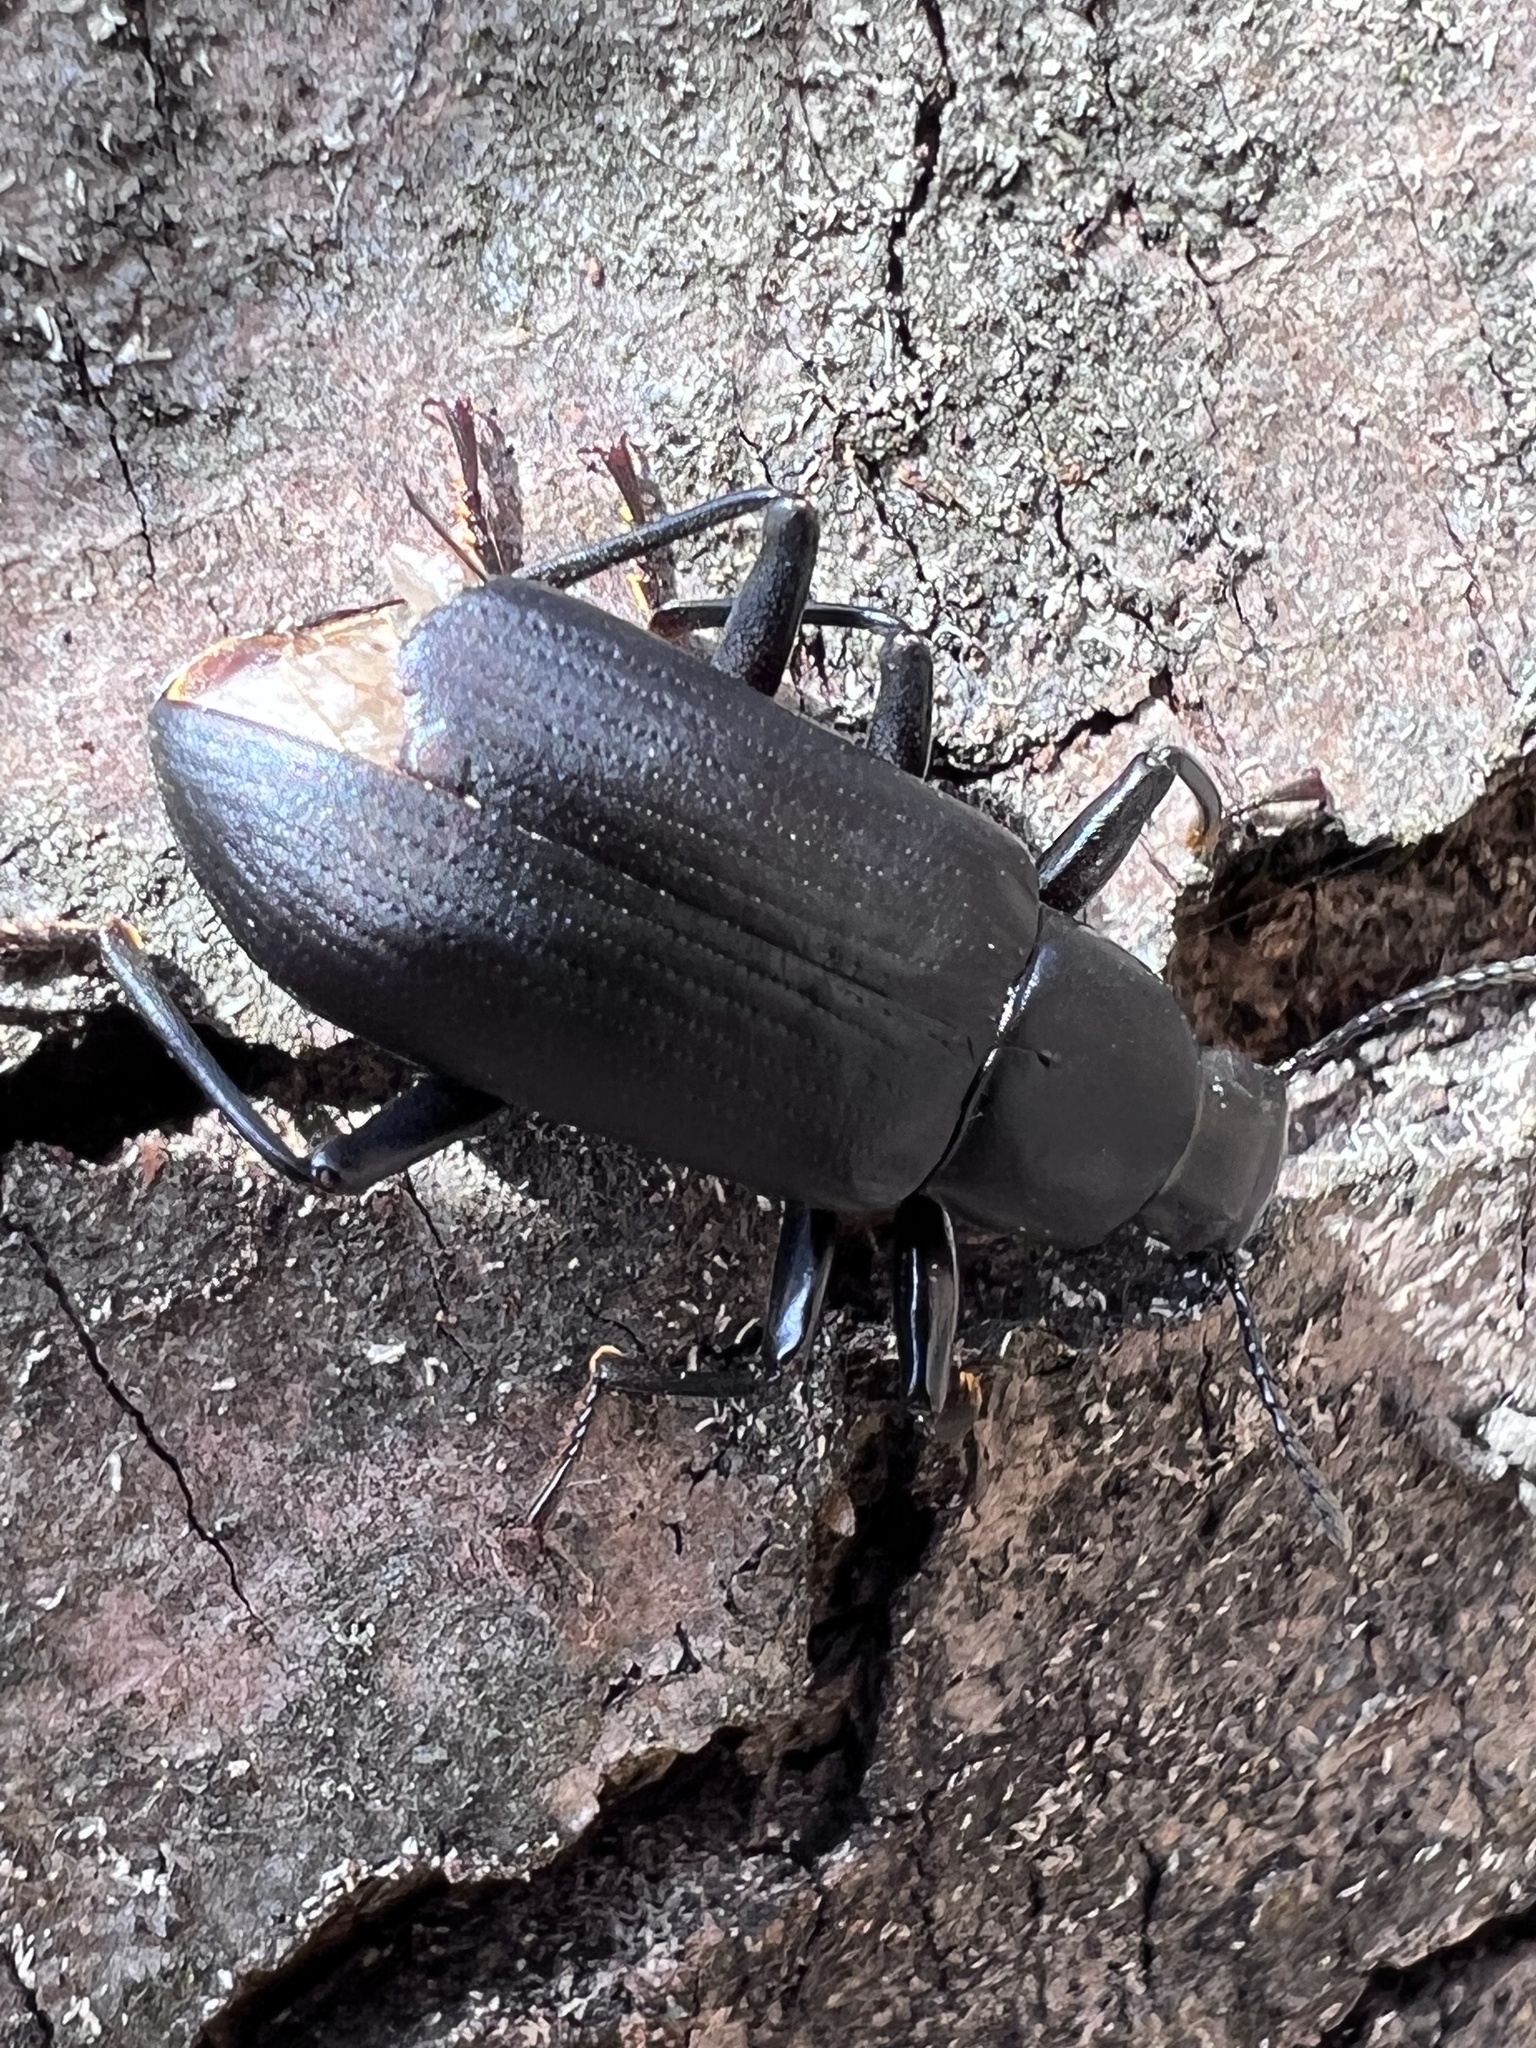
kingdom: Animalia
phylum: Arthropoda
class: Insecta
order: Coleoptera
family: Tenebrionidae
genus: Alobates
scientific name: Alobates
